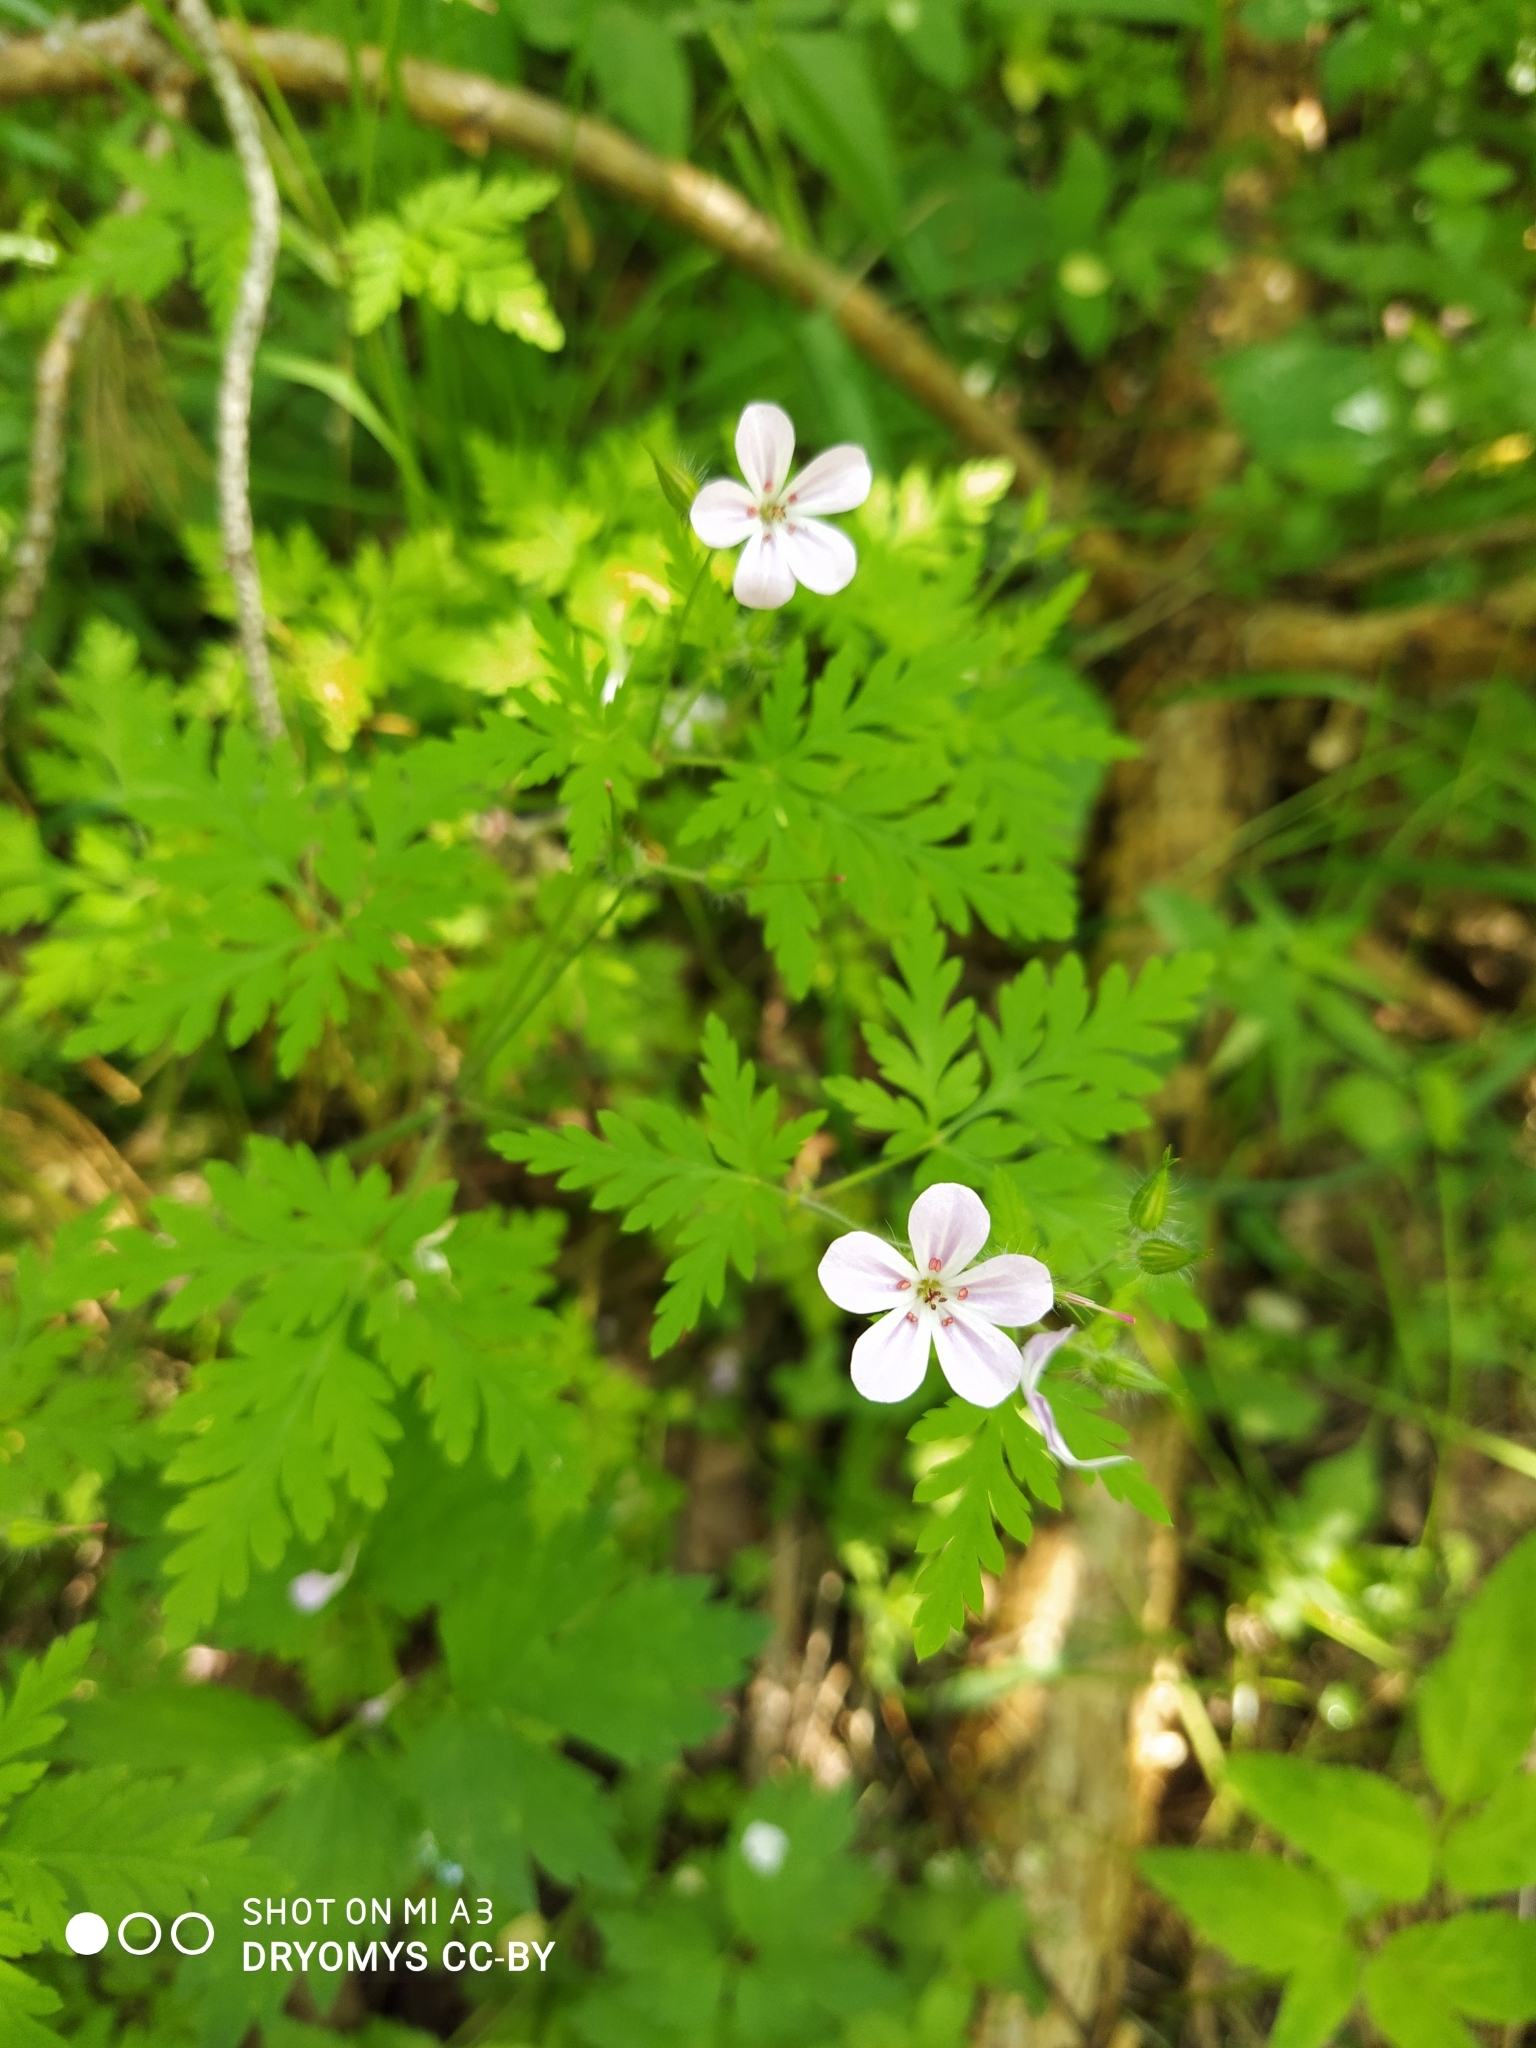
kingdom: Plantae
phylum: Tracheophyta
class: Magnoliopsida
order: Geraniales
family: Geraniaceae
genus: Geranium
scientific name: Geranium robertianum
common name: Herb-robert
